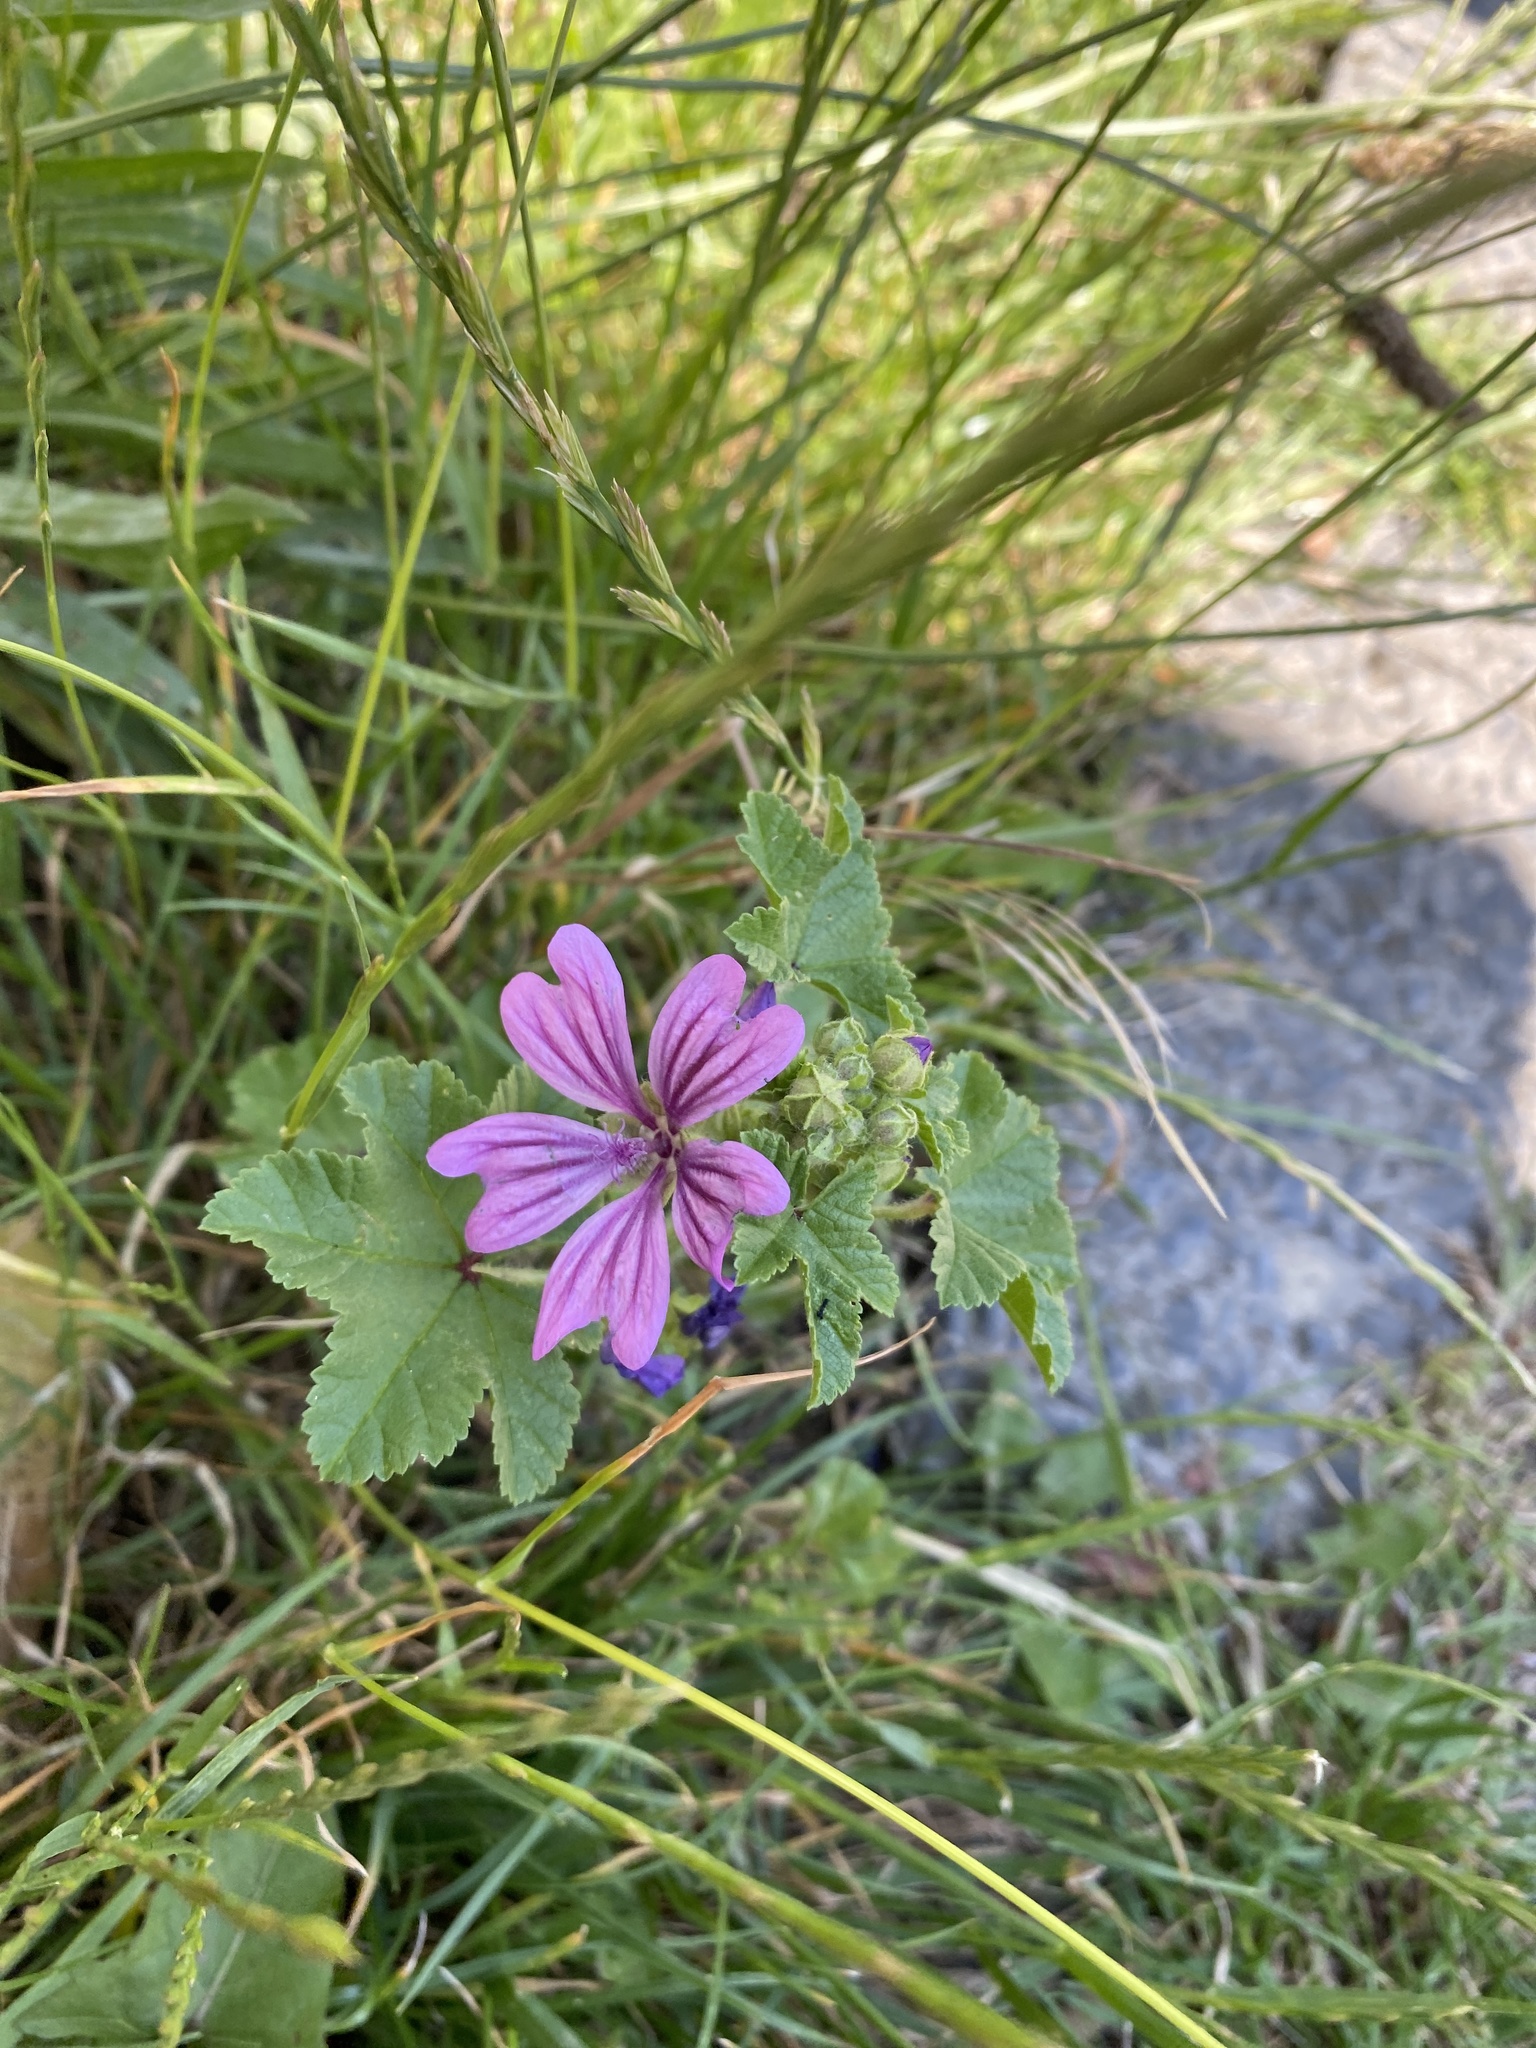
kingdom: Plantae
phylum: Tracheophyta
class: Magnoliopsida
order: Malvales
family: Malvaceae
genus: Malva
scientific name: Malva sylvestris
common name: Common mallow
